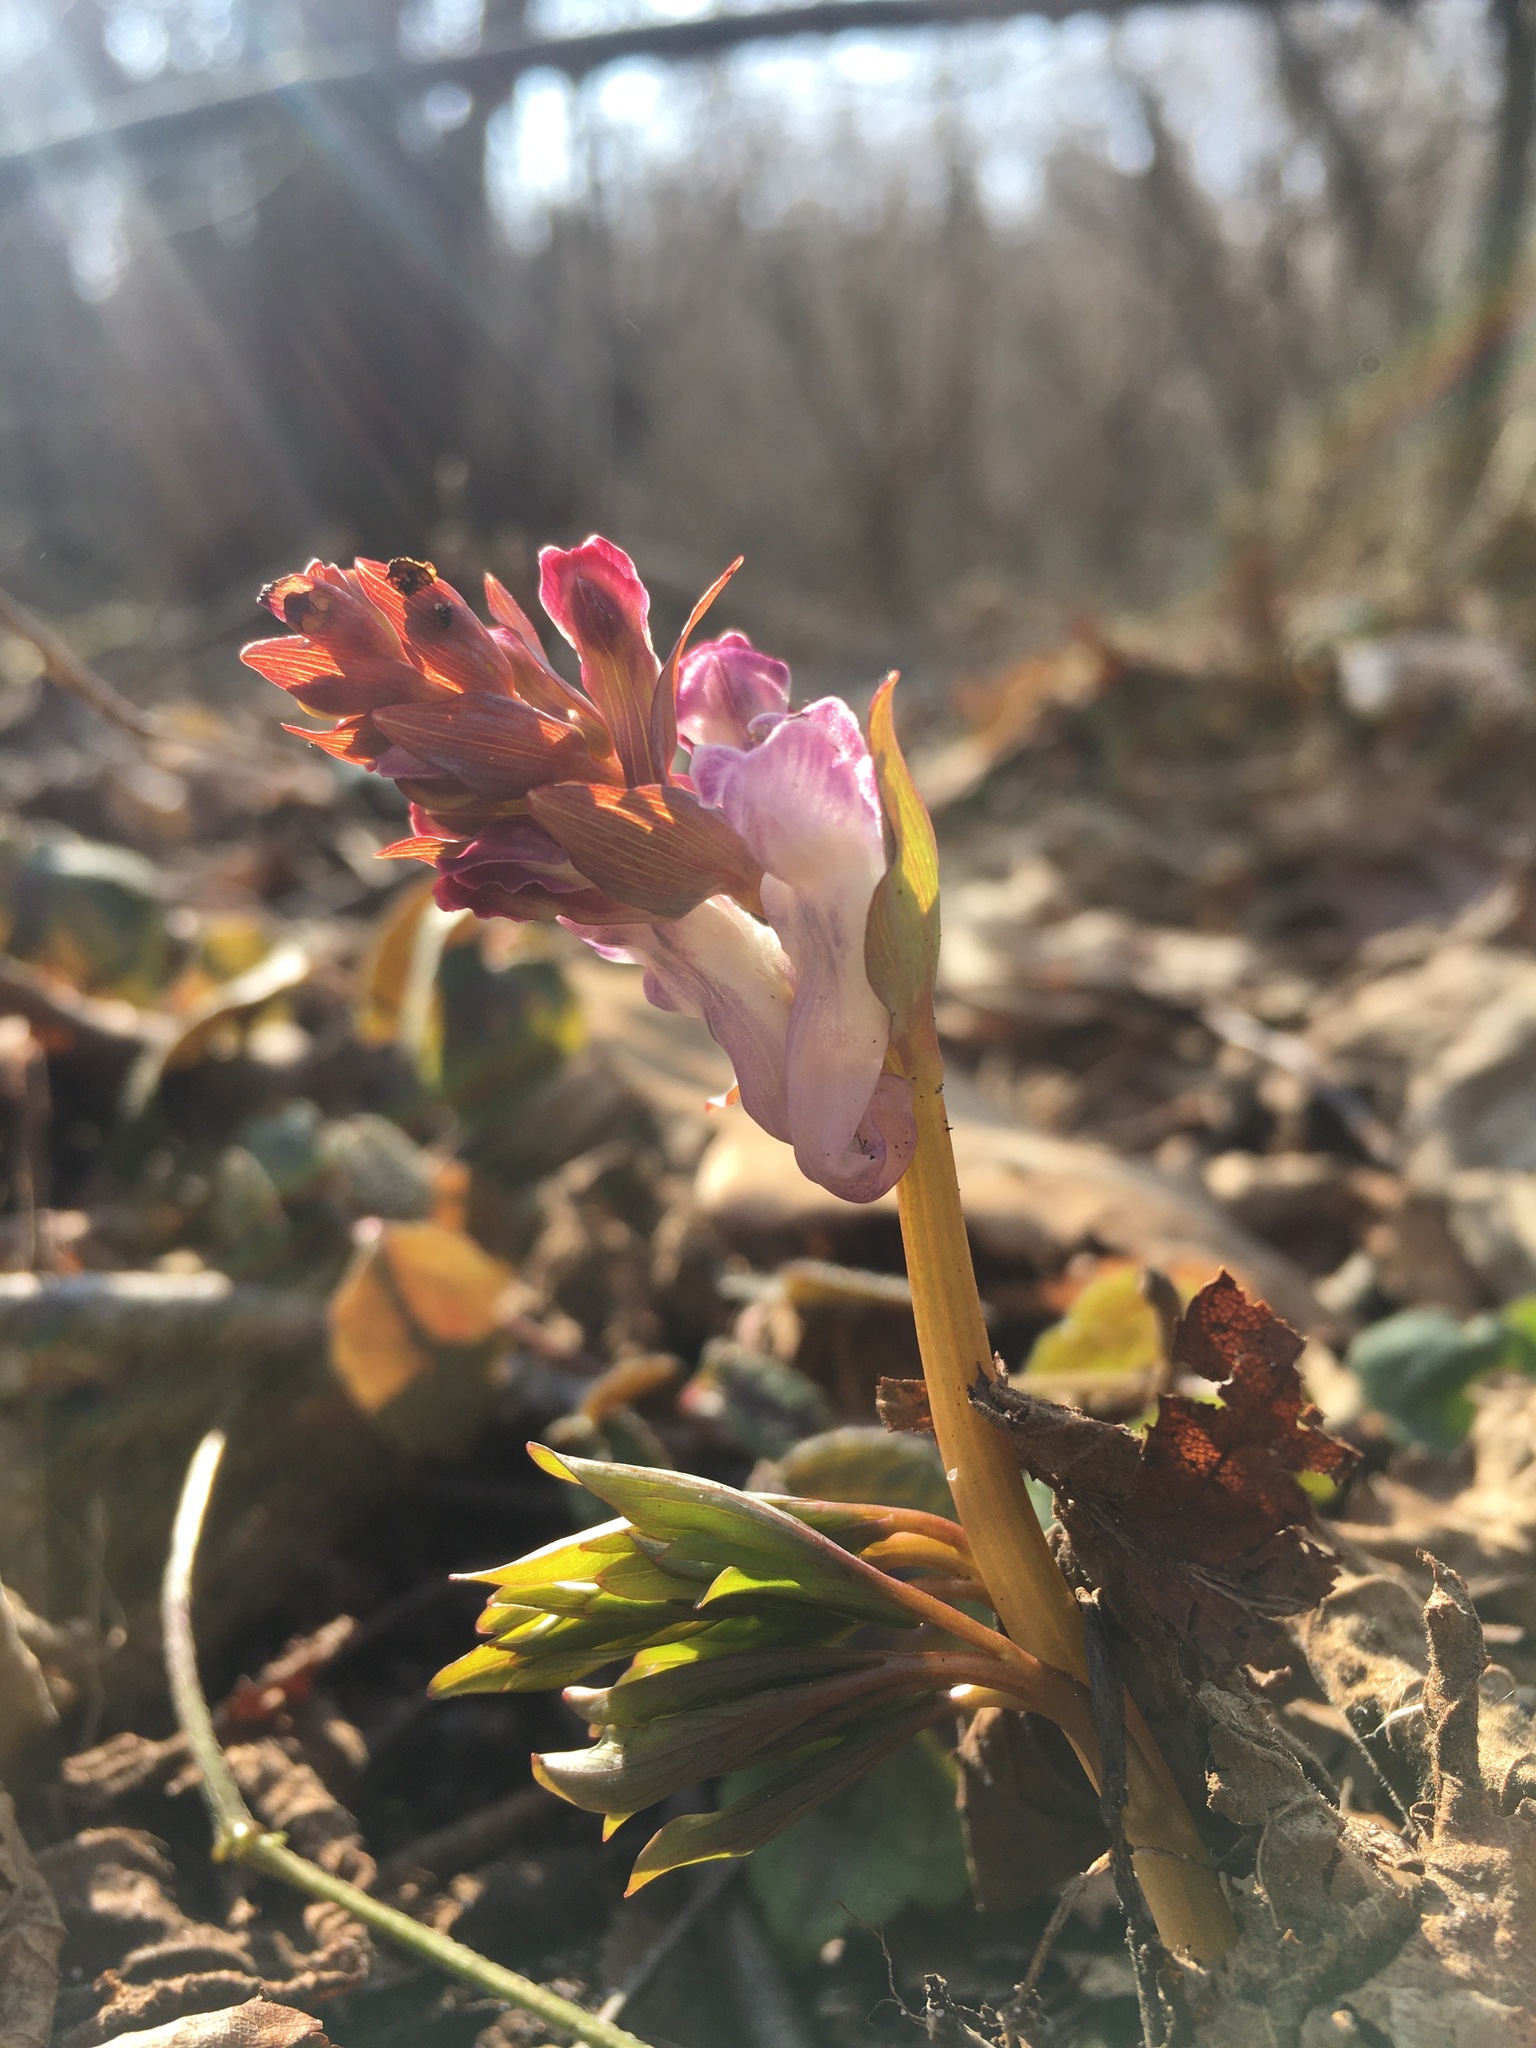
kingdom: Plantae
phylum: Tracheophyta
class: Magnoliopsida
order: Ranunculales
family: Papaveraceae
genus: Corydalis
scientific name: Corydalis cava
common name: Hollowroot
